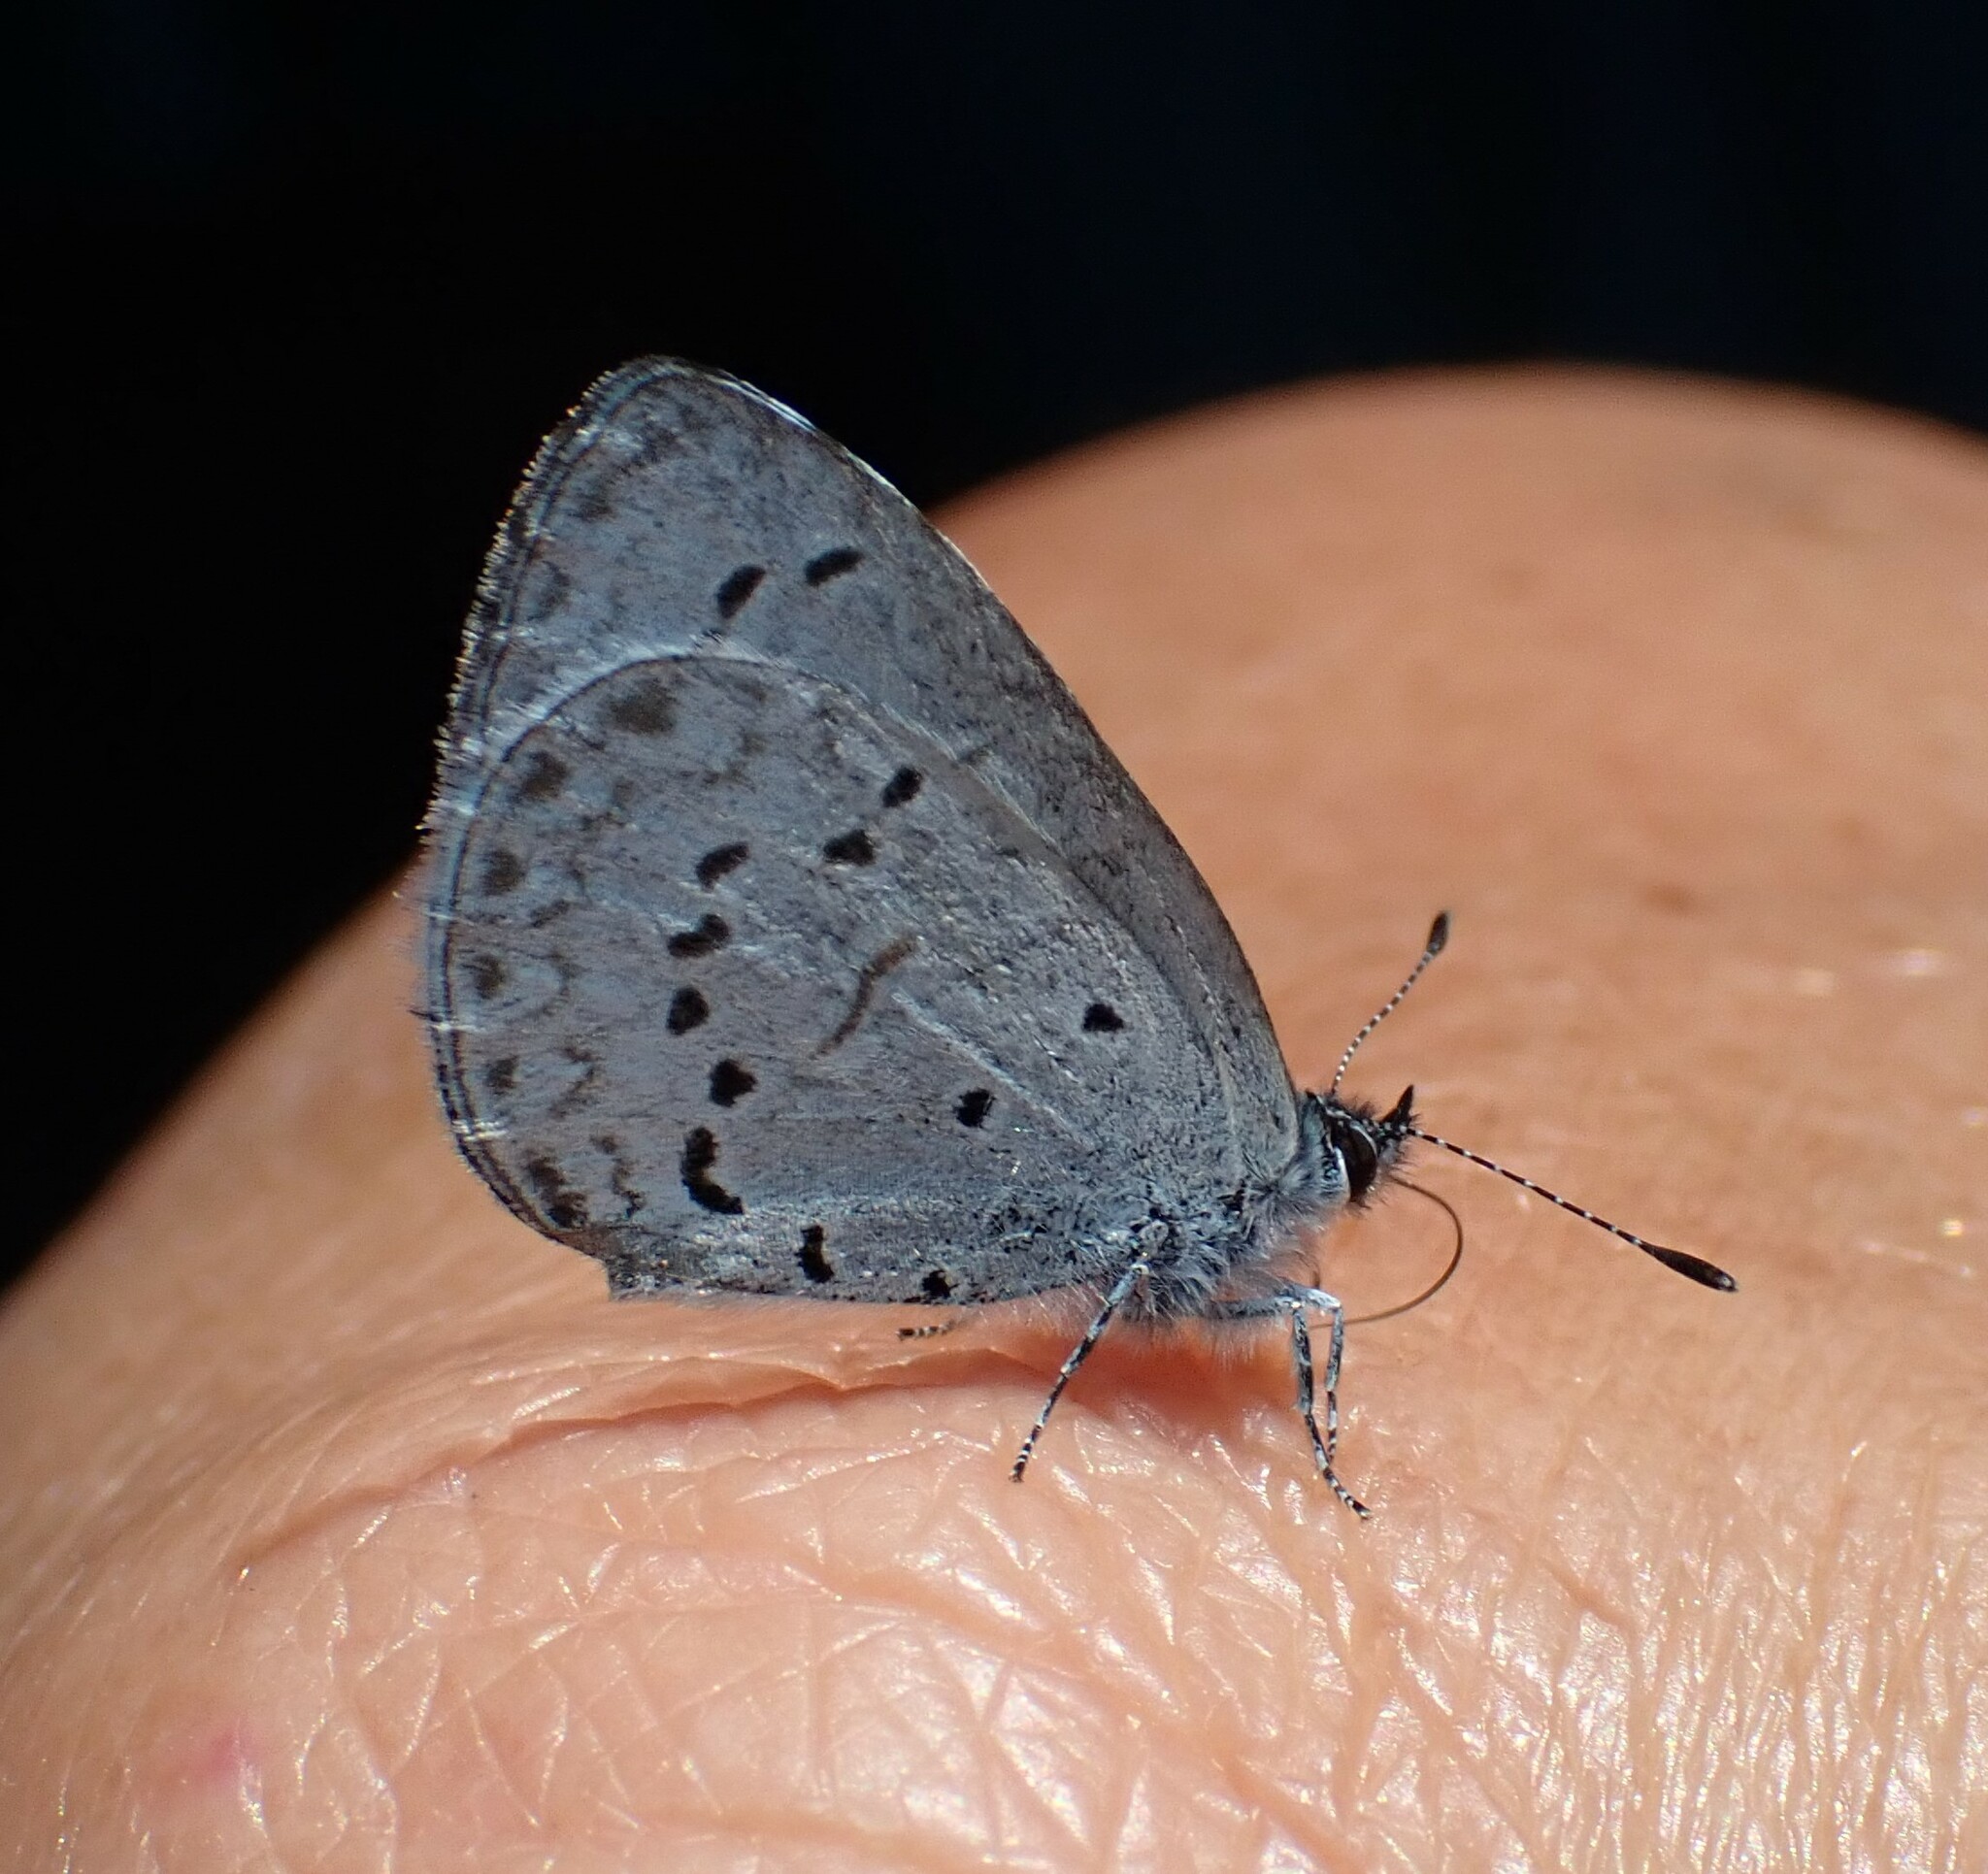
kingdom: Animalia
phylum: Arthropoda
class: Insecta
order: Lepidoptera
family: Lycaenidae
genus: Celastrina
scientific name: Celastrina ladon
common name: Spring azure
